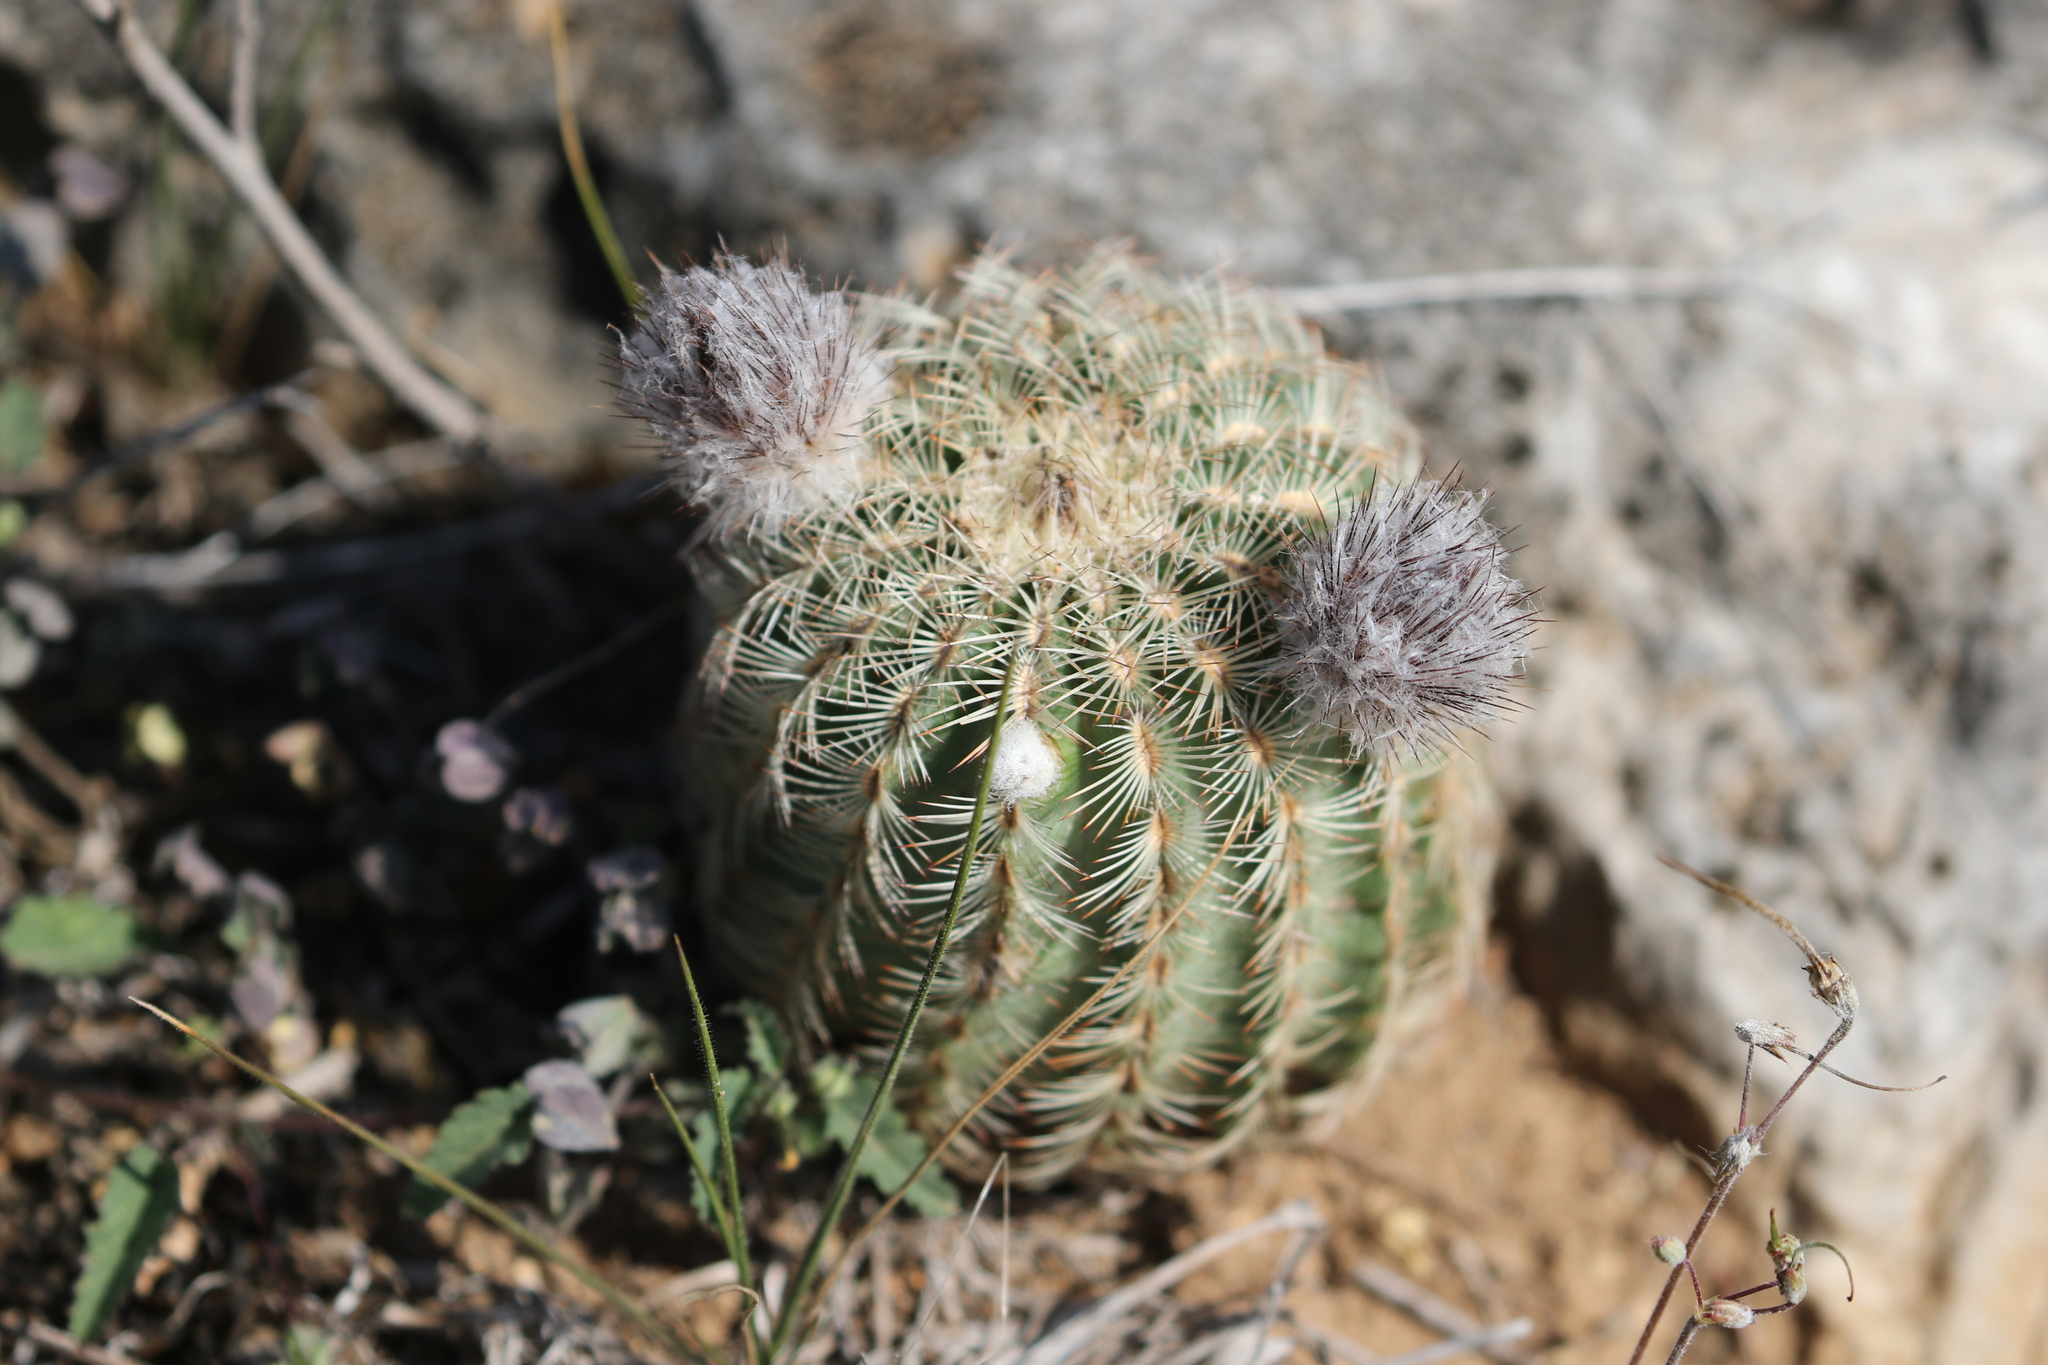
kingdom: Plantae
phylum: Tracheophyta
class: Magnoliopsida
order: Caryophyllales
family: Cactaceae
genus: Echinocereus
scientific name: Echinocereus reichenbachii
